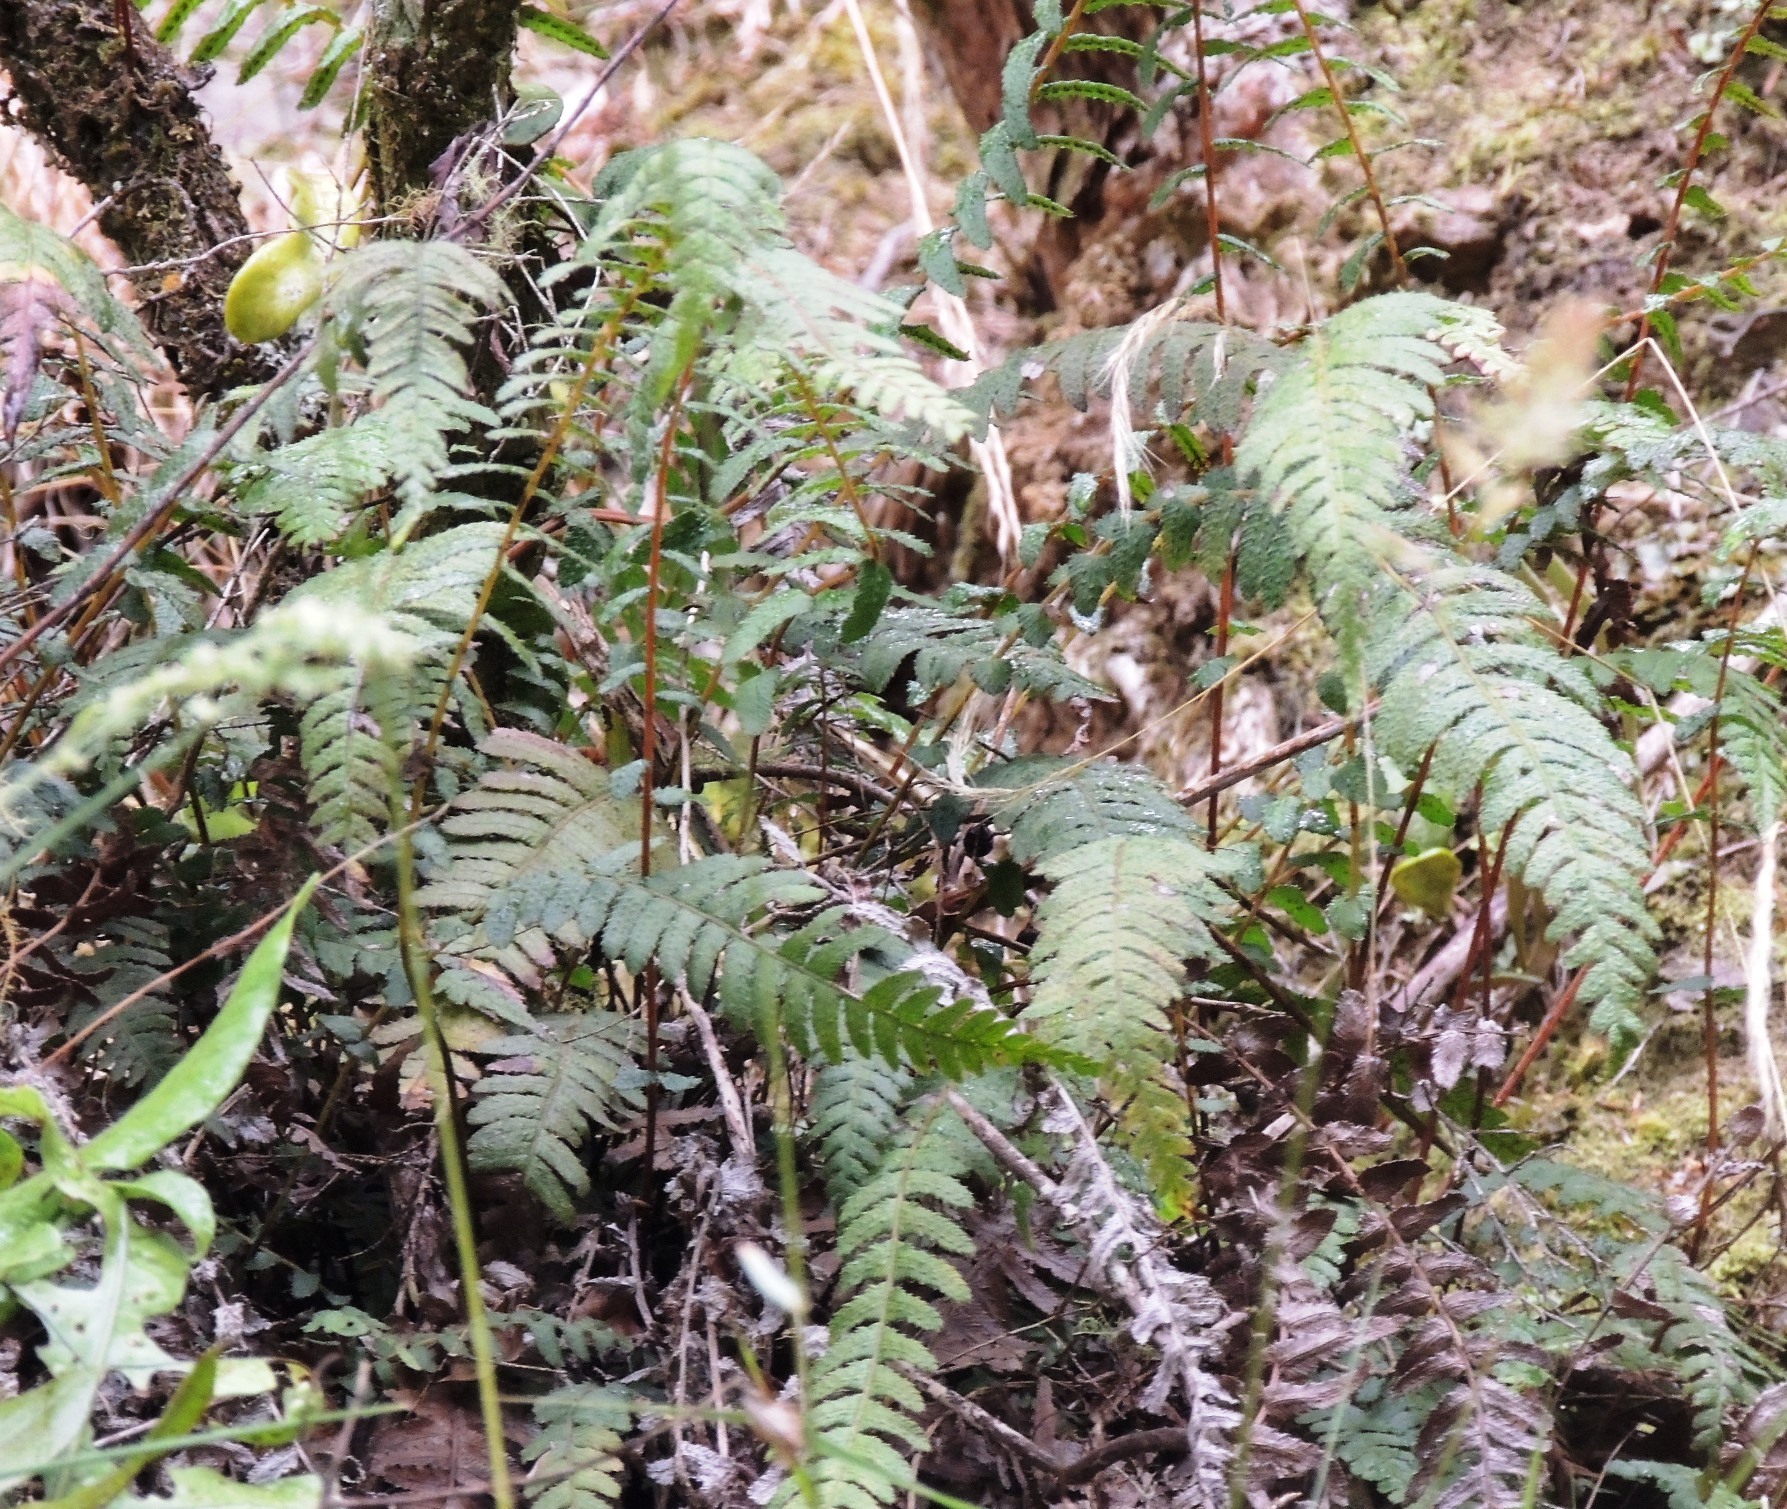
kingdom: Plantae
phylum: Tracheophyta
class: Polypodiopsida
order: Polypodiales
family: Blechnaceae
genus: Doodia
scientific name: Doodia australis
